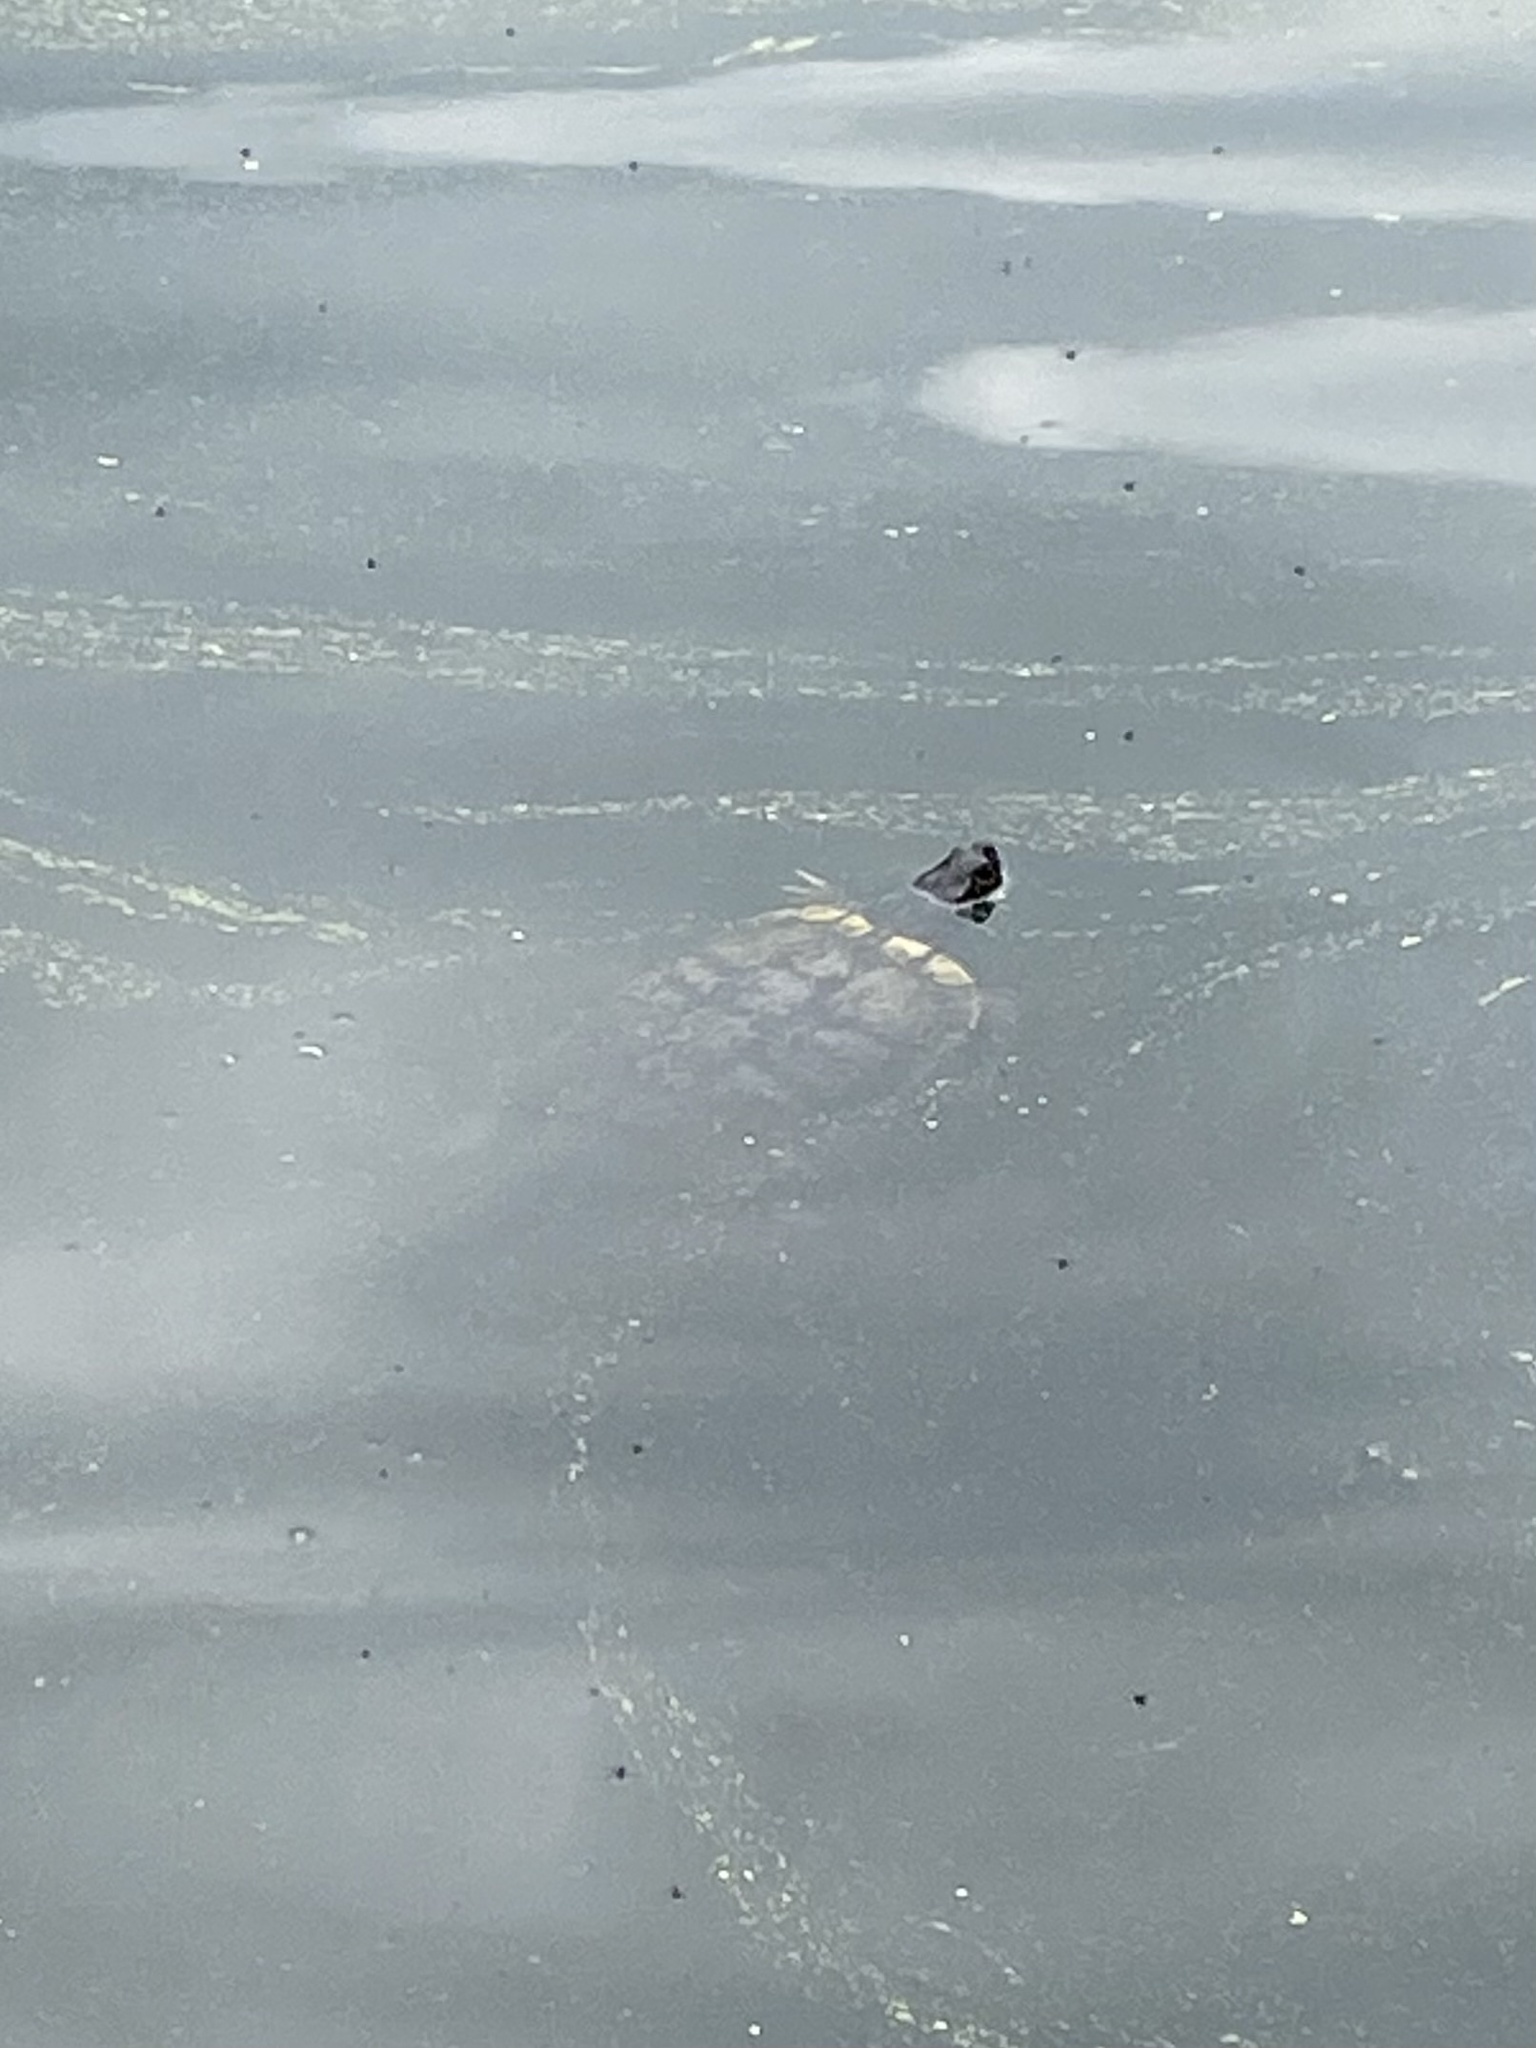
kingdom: Animalia
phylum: Chordata
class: Testudines
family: Emydidae
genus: Trachemys
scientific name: Trachemys scripta
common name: Slider
